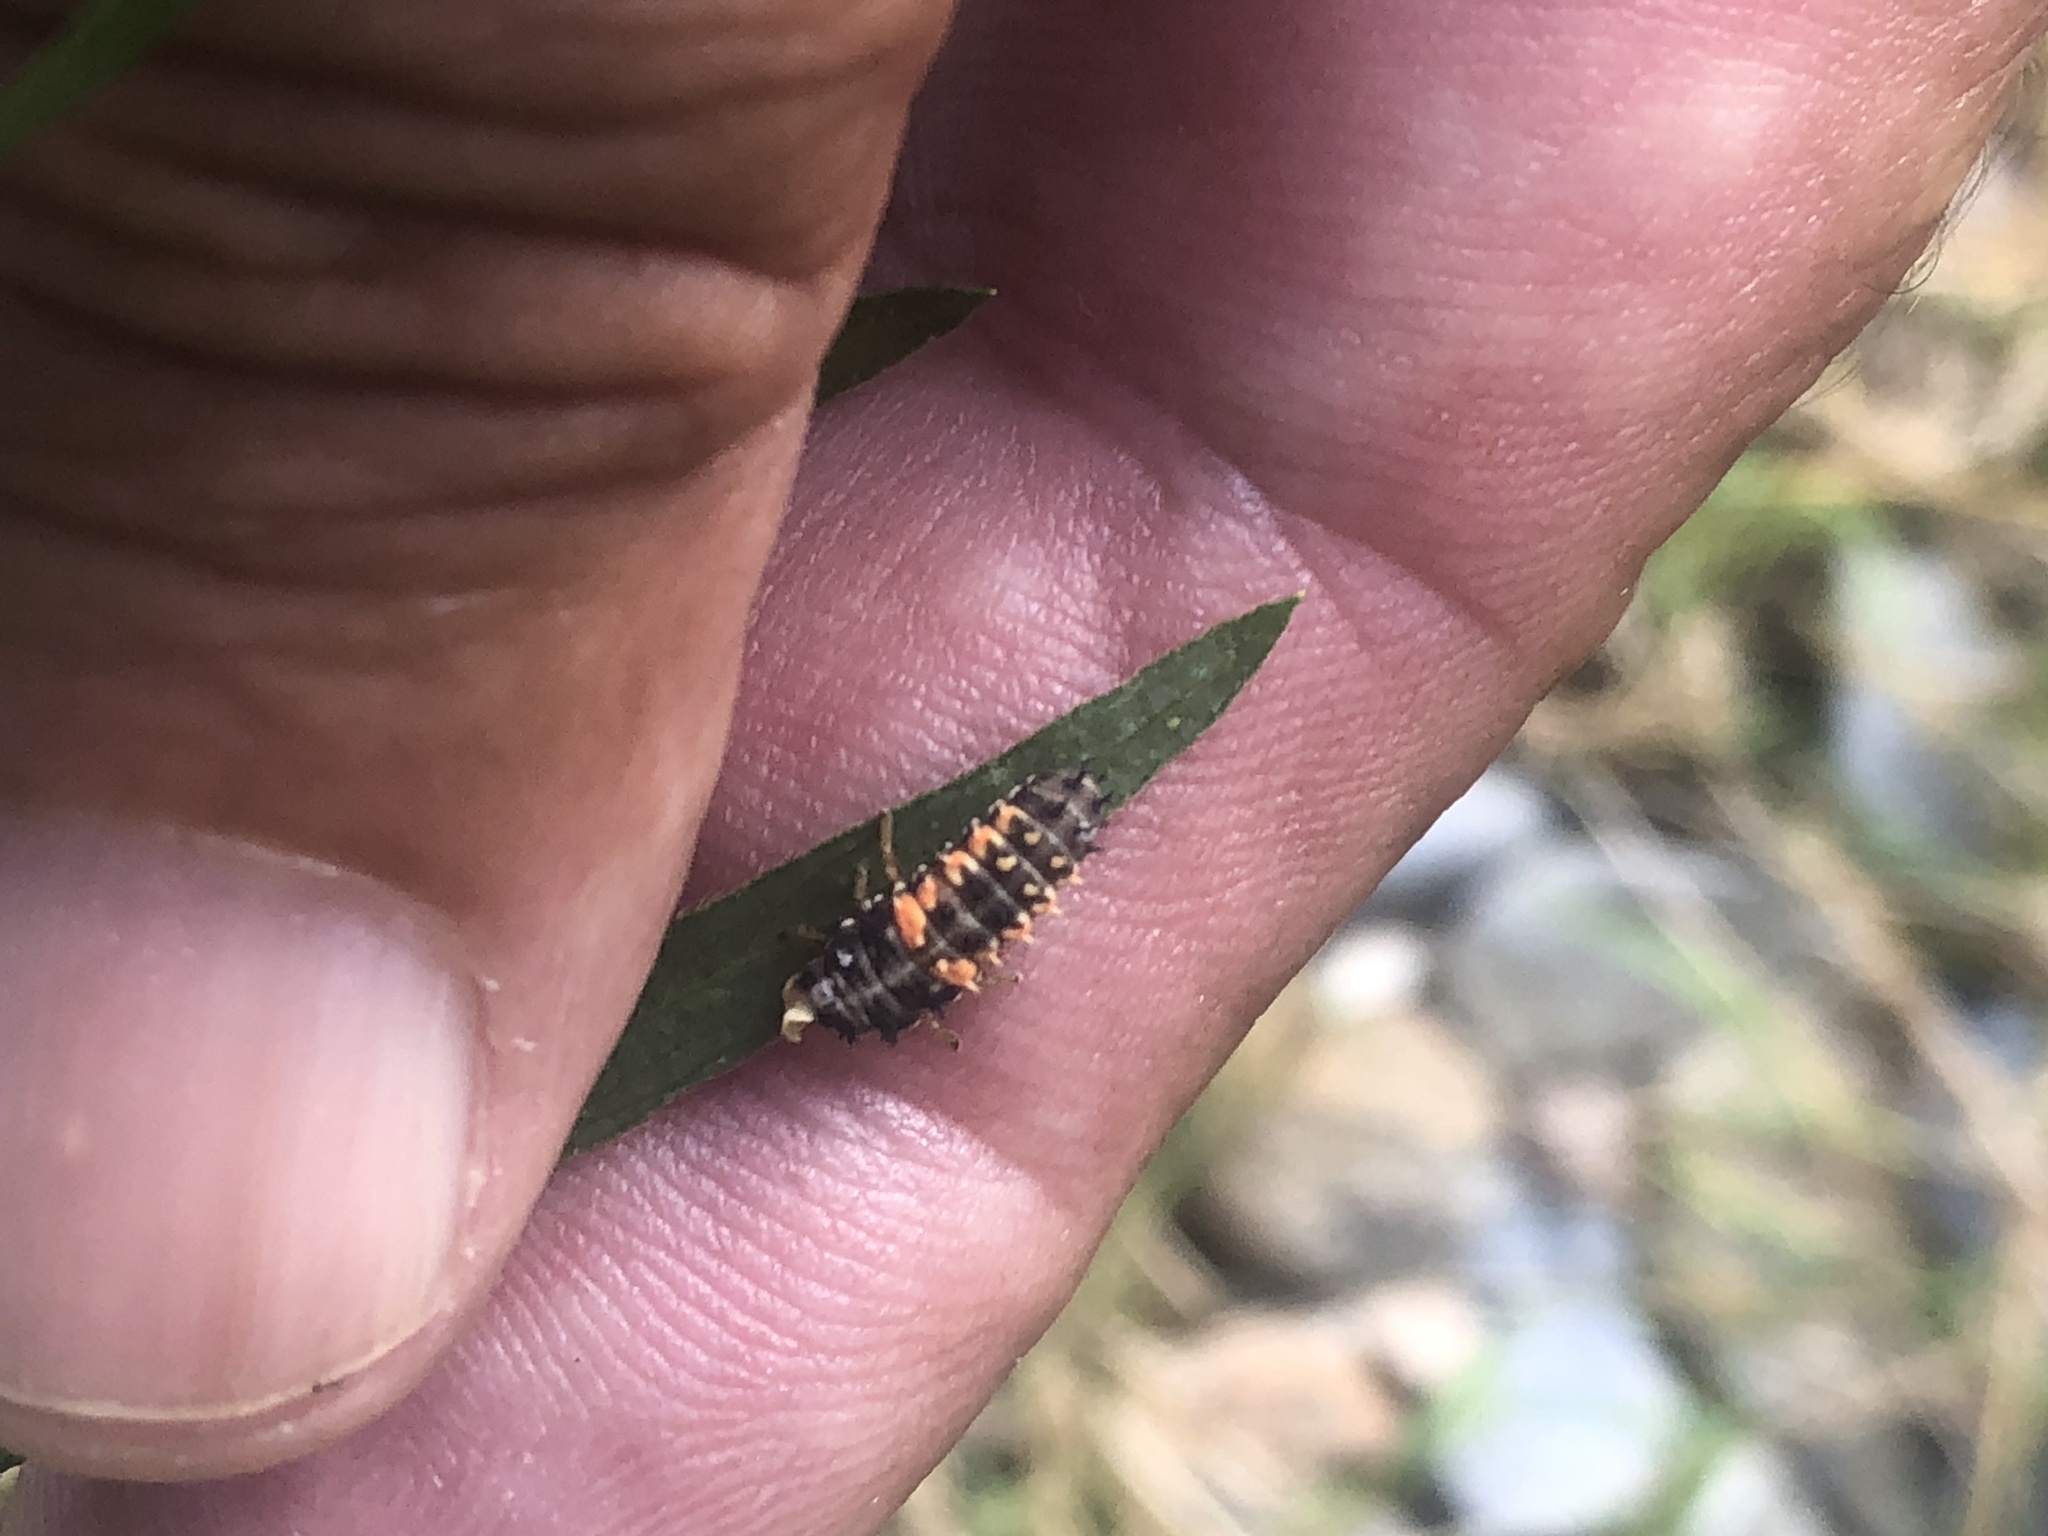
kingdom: Animalia
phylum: Arthropoda
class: Insecta
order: Coleoptera
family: Coccinellidae
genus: Harmonia
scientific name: Harmonia axyridis
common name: Harlequin ladybird
